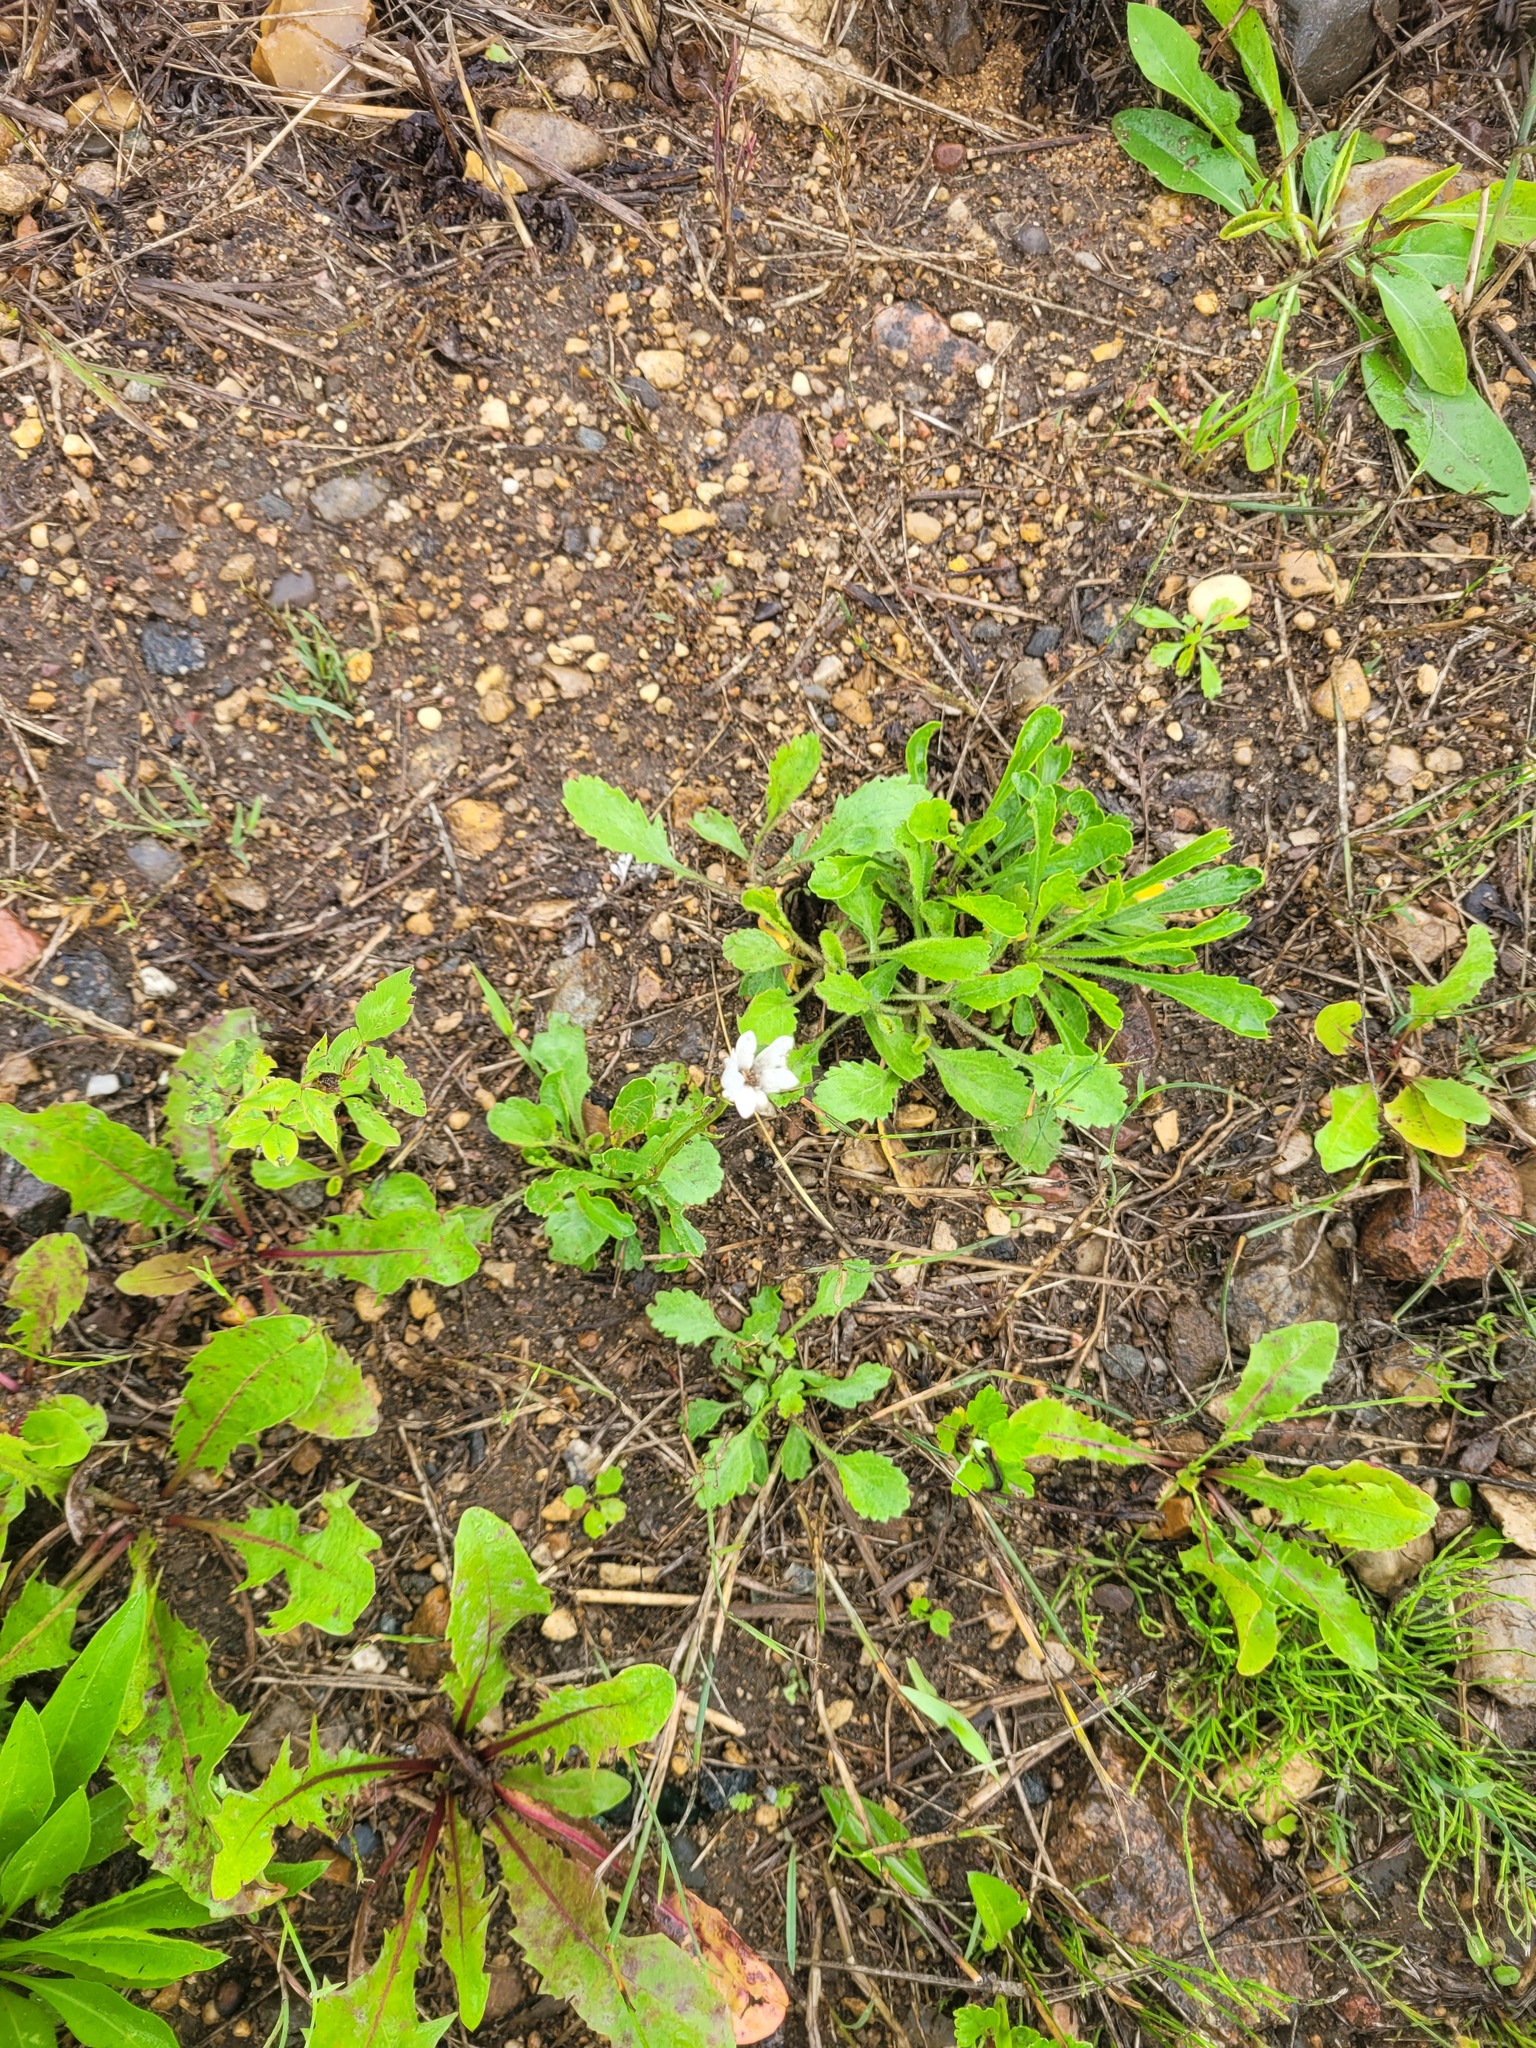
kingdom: Plantae
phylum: Tracheophyta
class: Magnoliopsida
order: Asterales
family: Asteraceae
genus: Leucanthemum
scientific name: Leucanthemum vulgare
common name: Oxeye daisy
